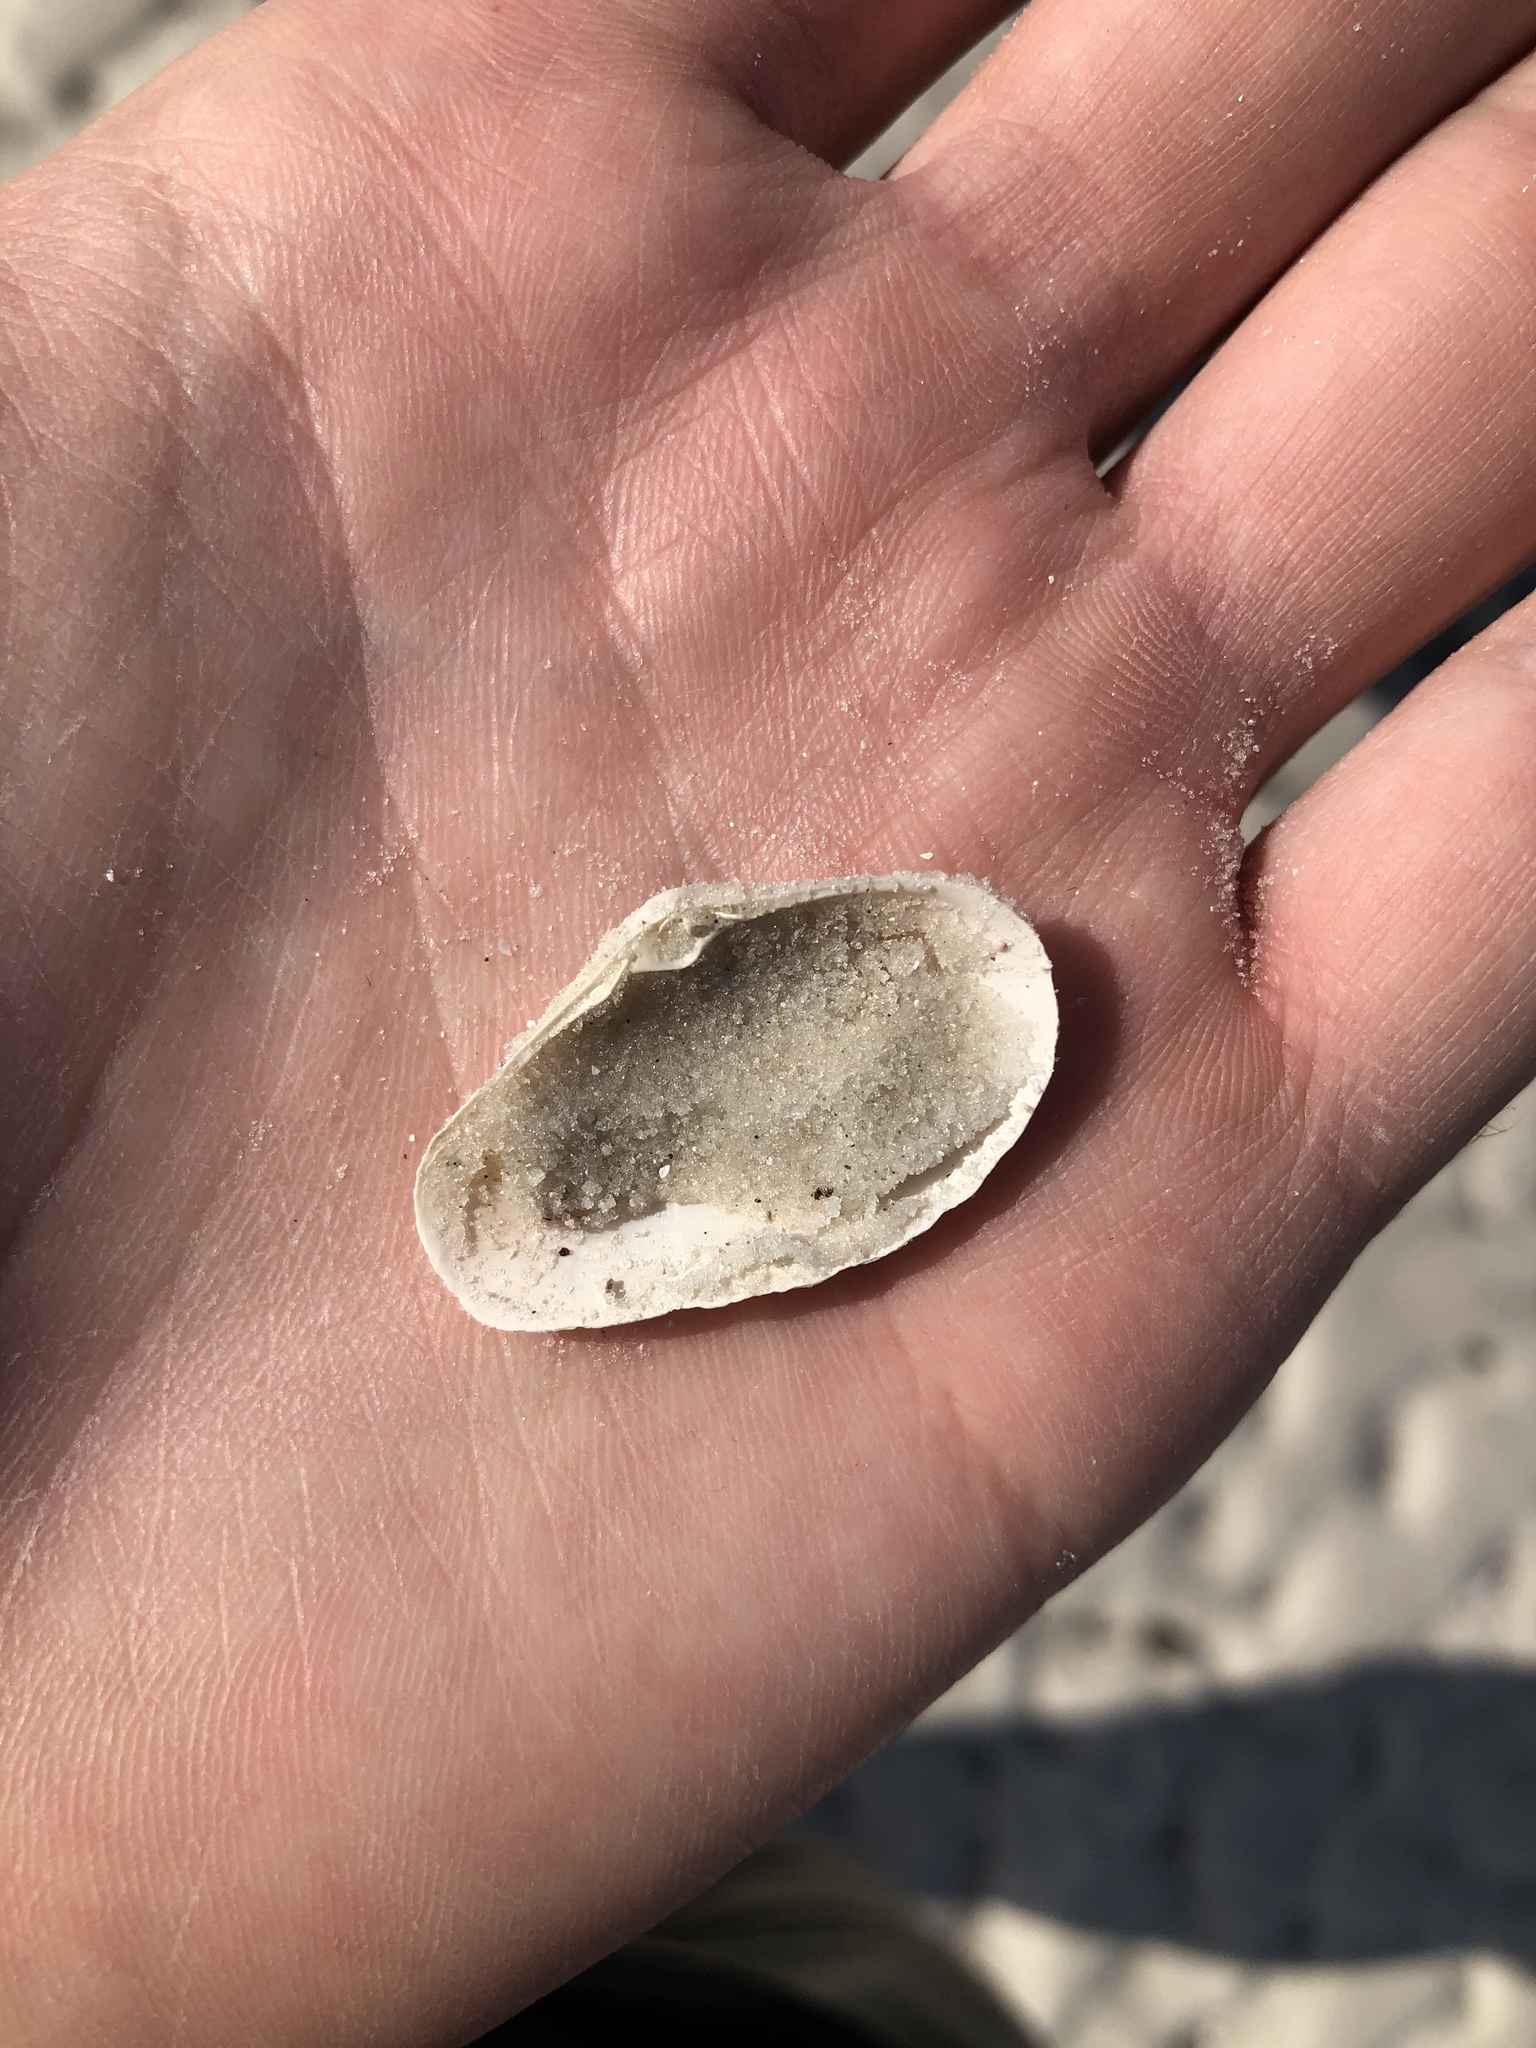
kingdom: Animalia
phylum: Mollusca
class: Bivalvia
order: Venerida
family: Mactridae
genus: Mactrotoma
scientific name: Mactrotoma fragilis
